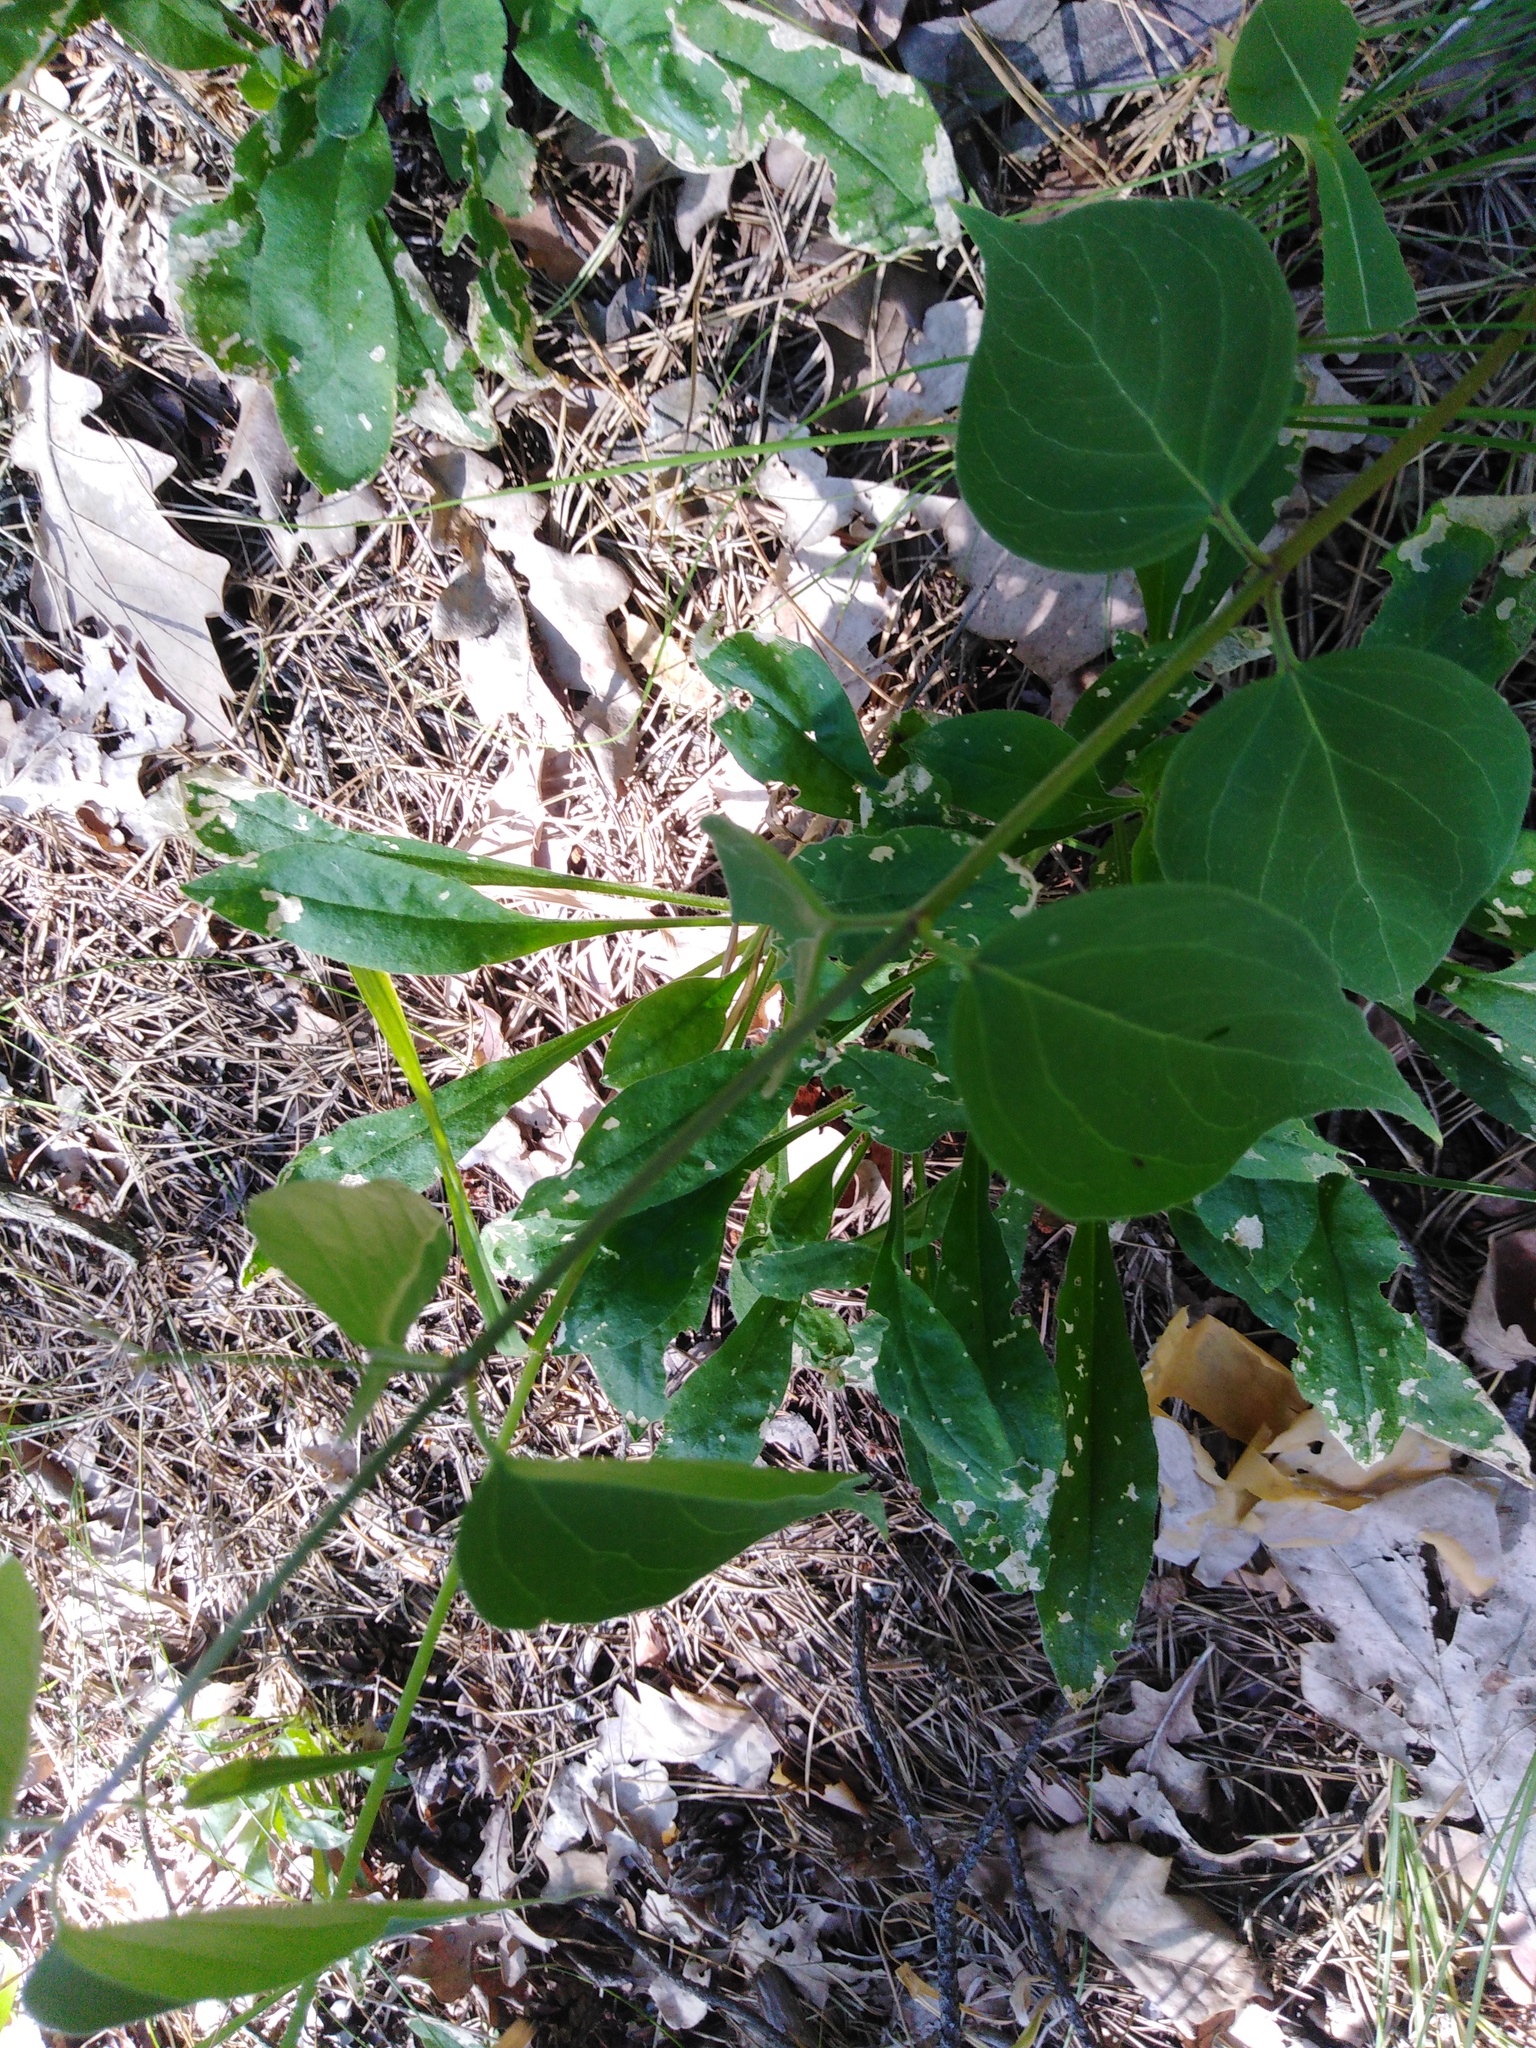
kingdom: Plantae
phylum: Tracheophyta
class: Magnoliopsida
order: Gentianales
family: Apocynaceae
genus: Vincetoxicum
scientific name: Vincetoxicum hirundinaria
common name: White swallowwort
